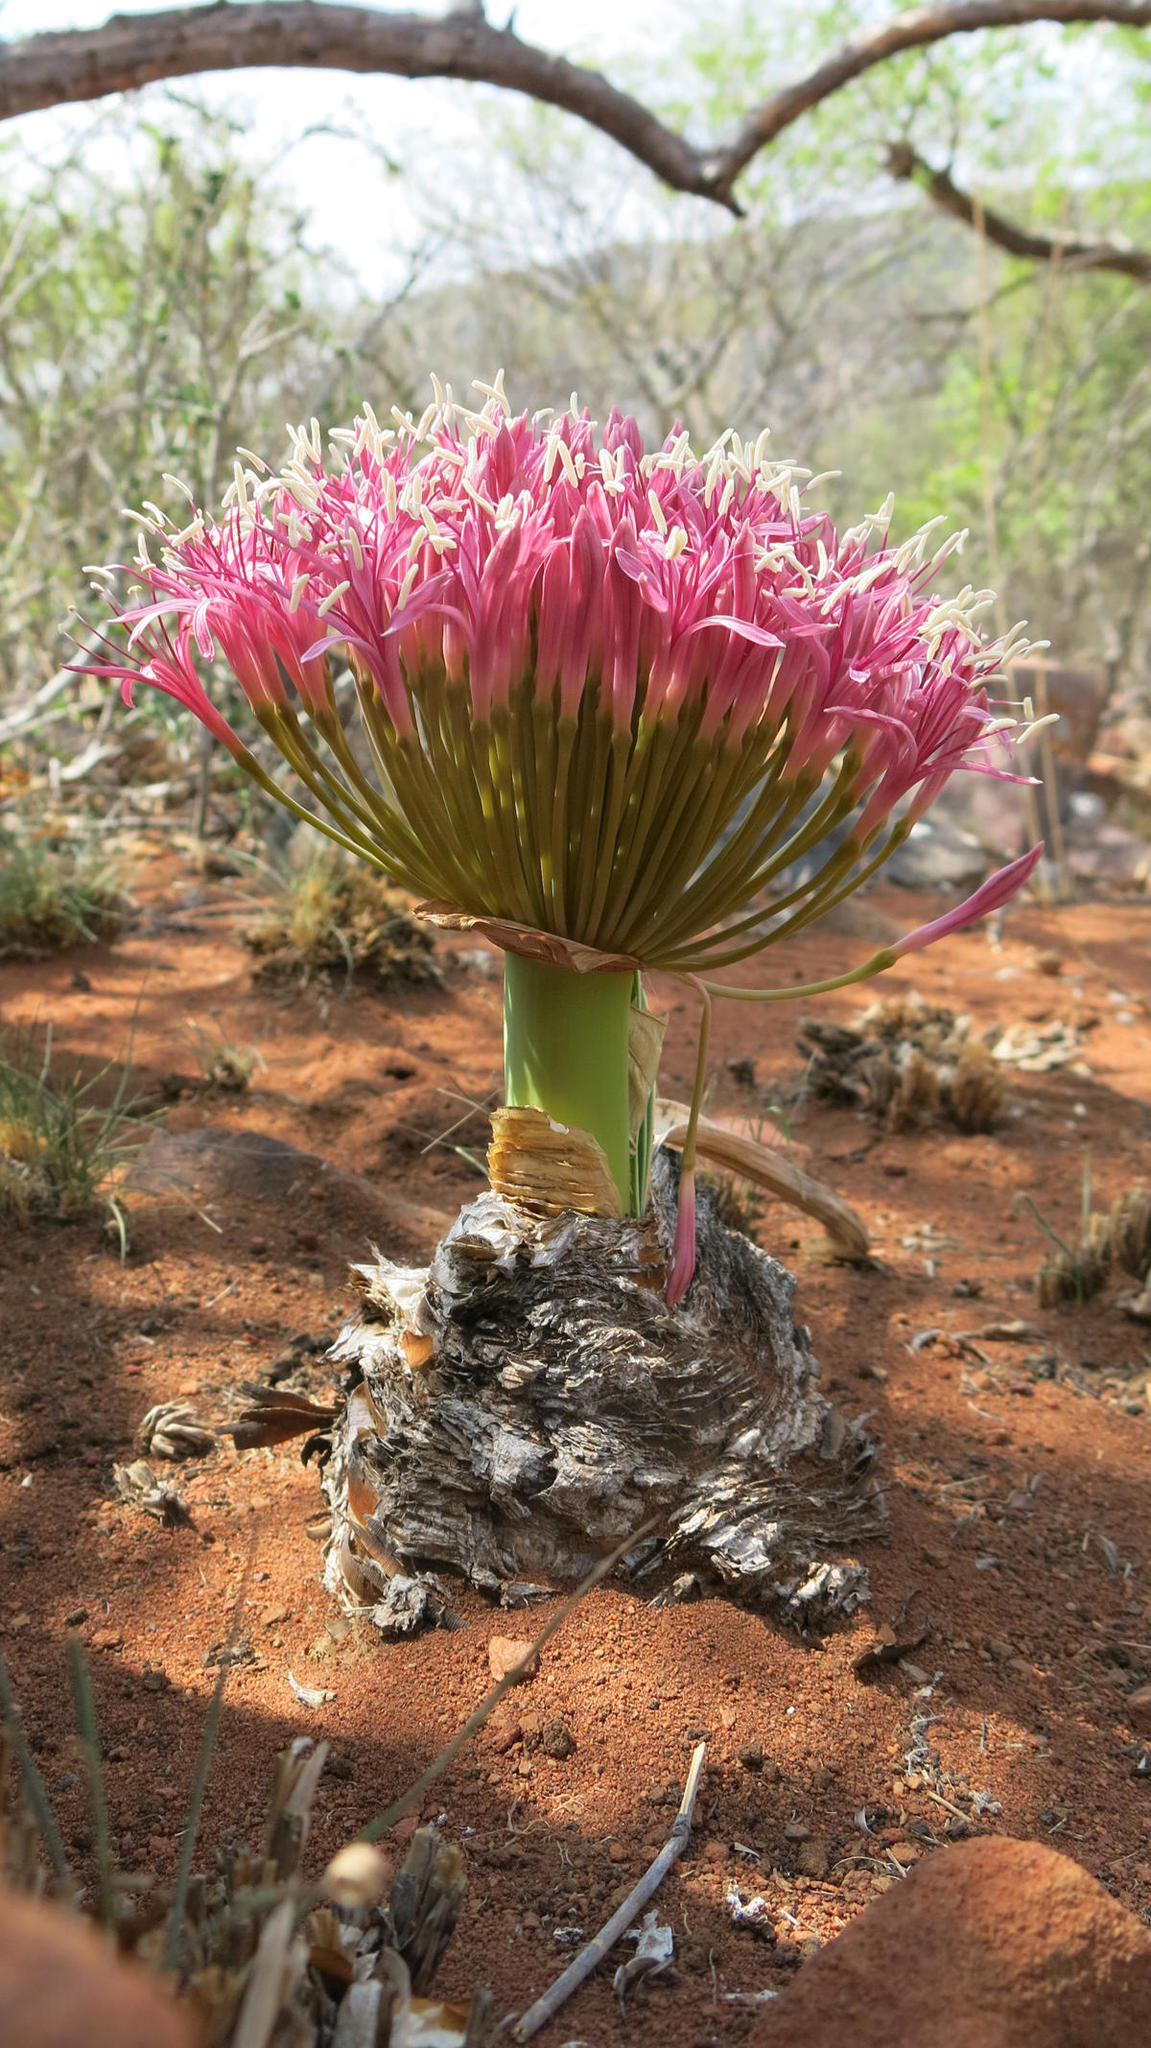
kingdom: Plantae
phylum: Tracheophyta
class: Liliopsida
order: Asparagales
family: Amaryllidaceae
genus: Boophone
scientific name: Boophone disticha
